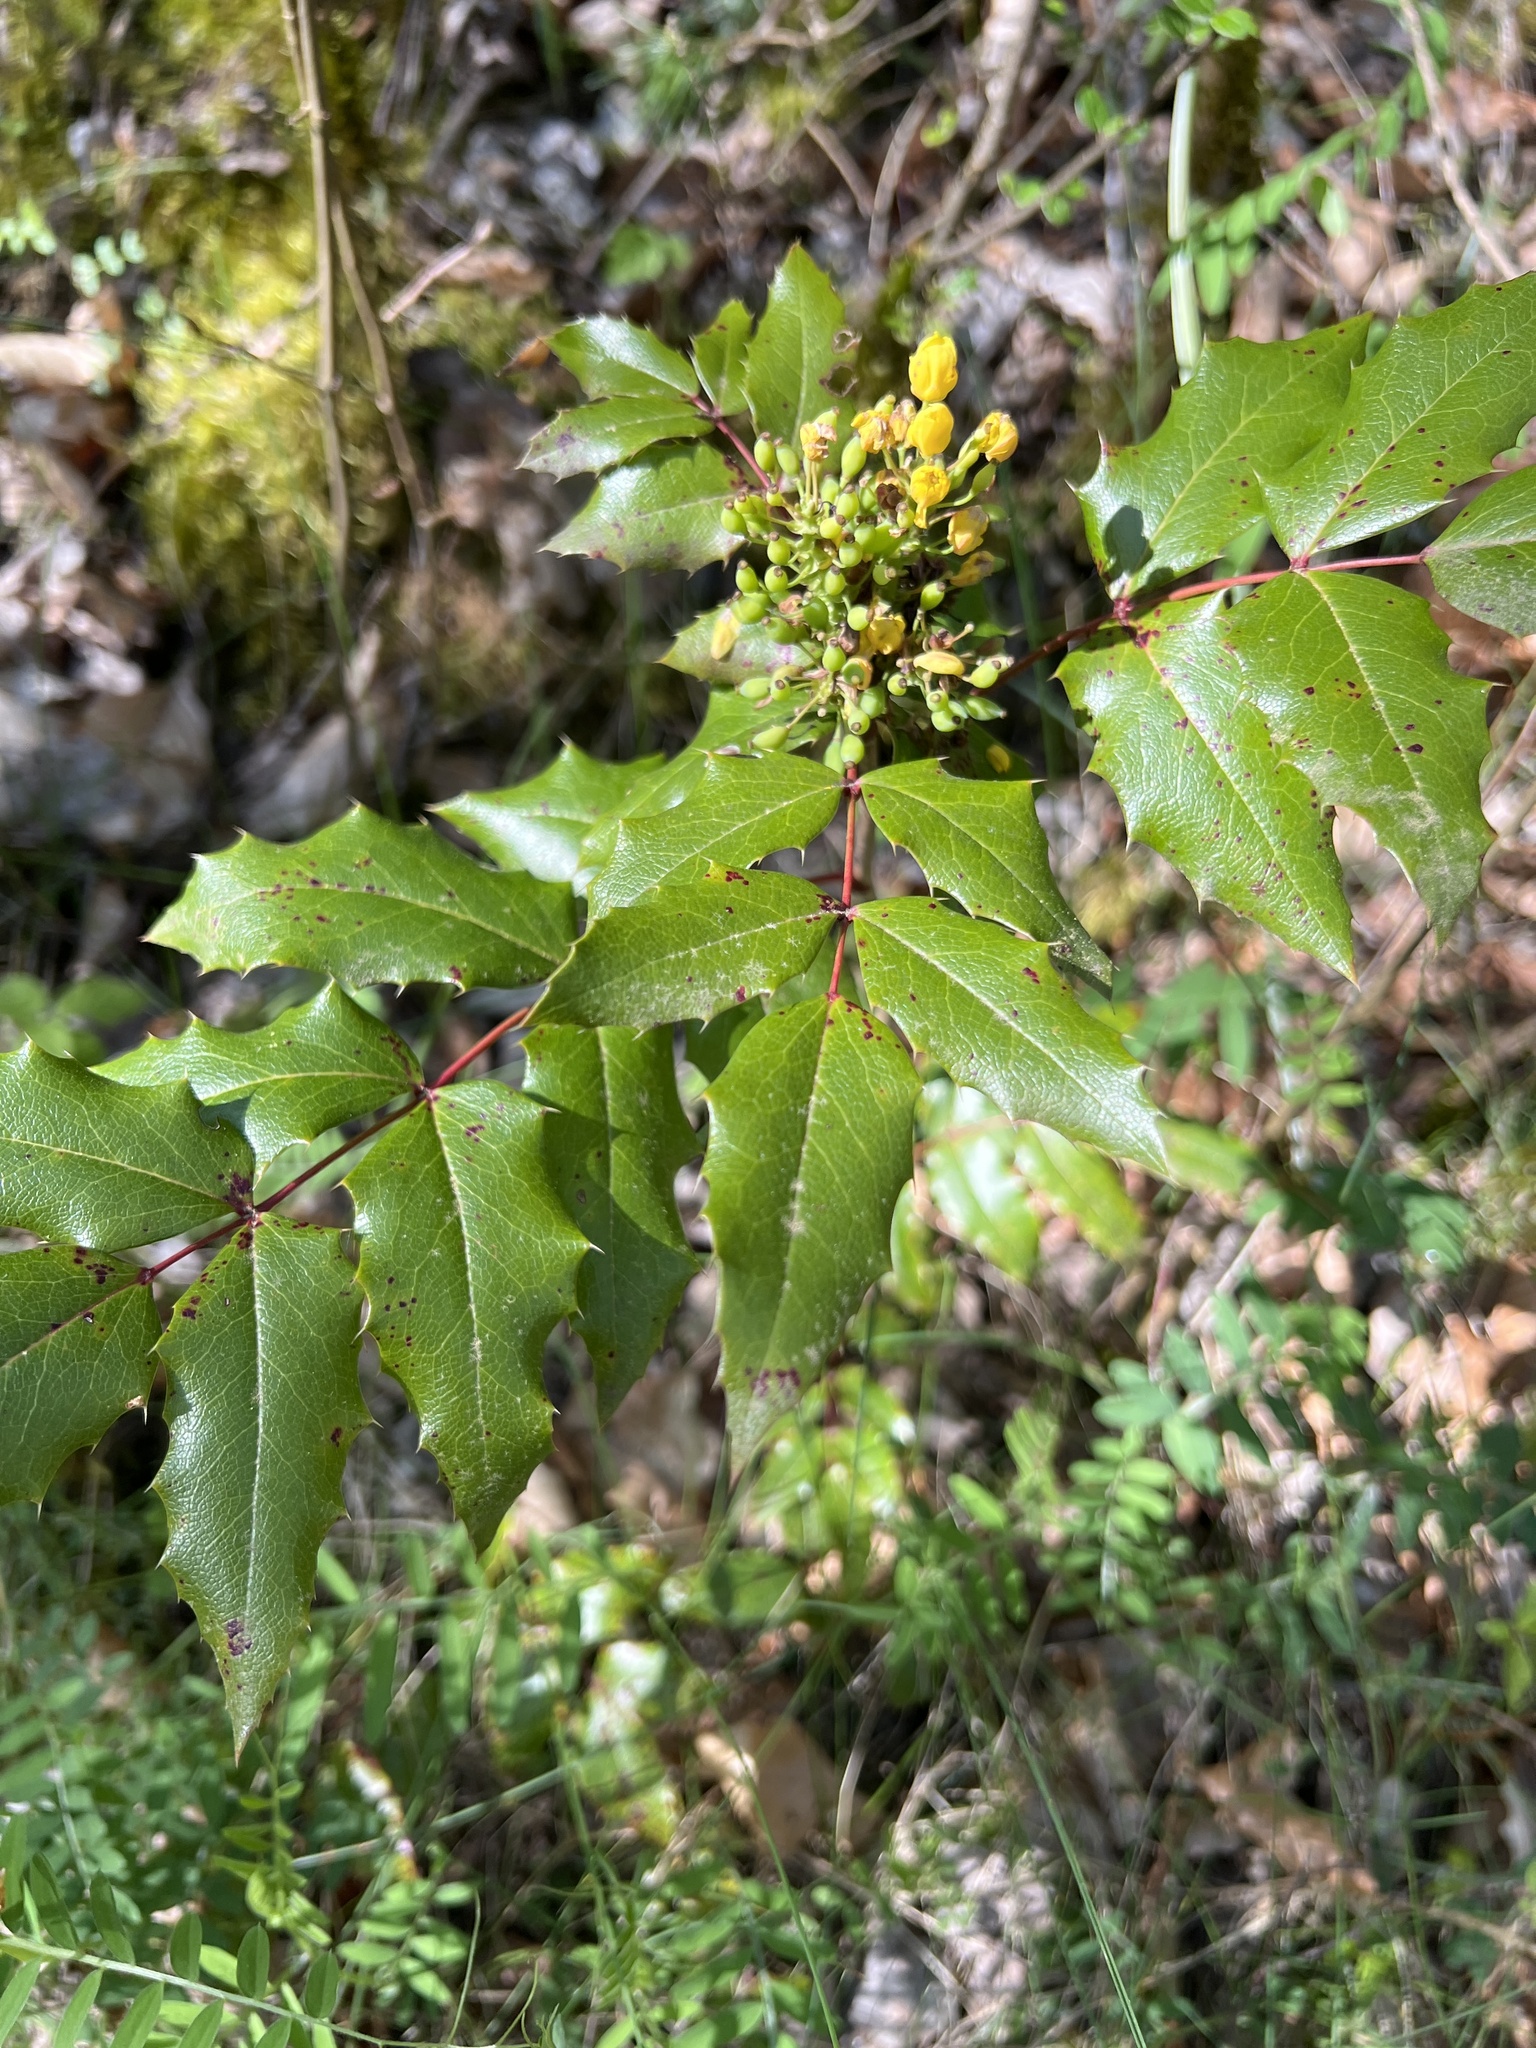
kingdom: Plantae
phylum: Tracheophyta
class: Magnoliopsida
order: Ranunculales
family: Berberidaceae
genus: Mahonia
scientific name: Mahonia aquifolium
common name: Oregon-grape
